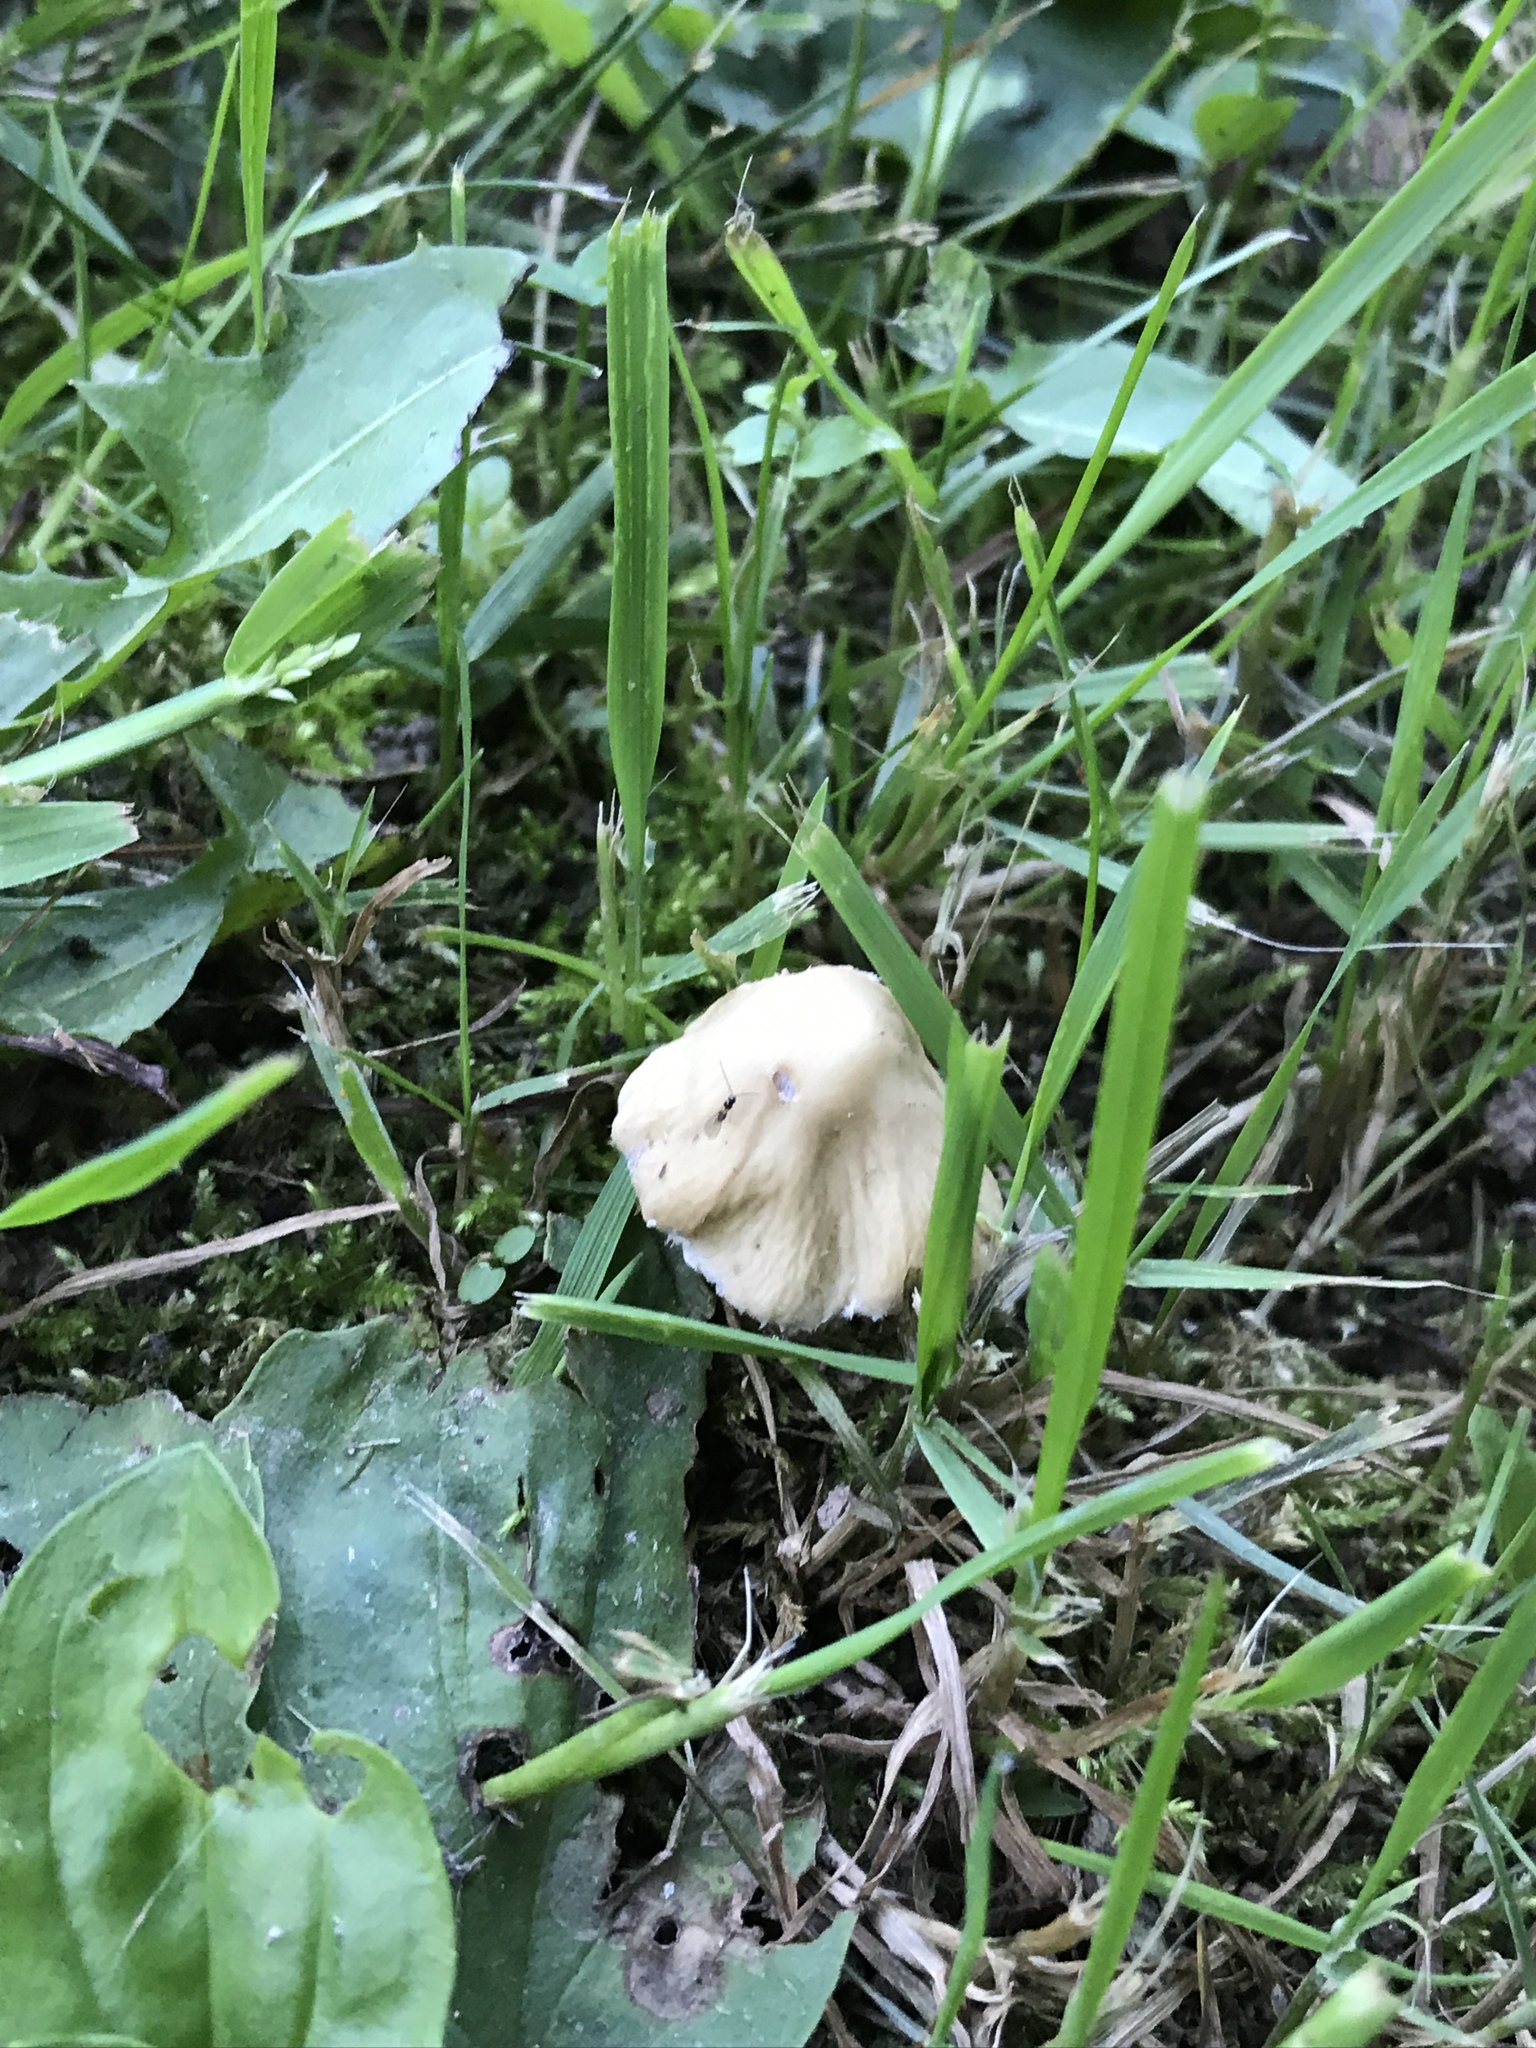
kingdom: Fungi
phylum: Basidiomycota
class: Agaricomycetes
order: Agaricales
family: Psathyrellaceae
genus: Candolleomyces
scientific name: Candolleomyces candolleanus
